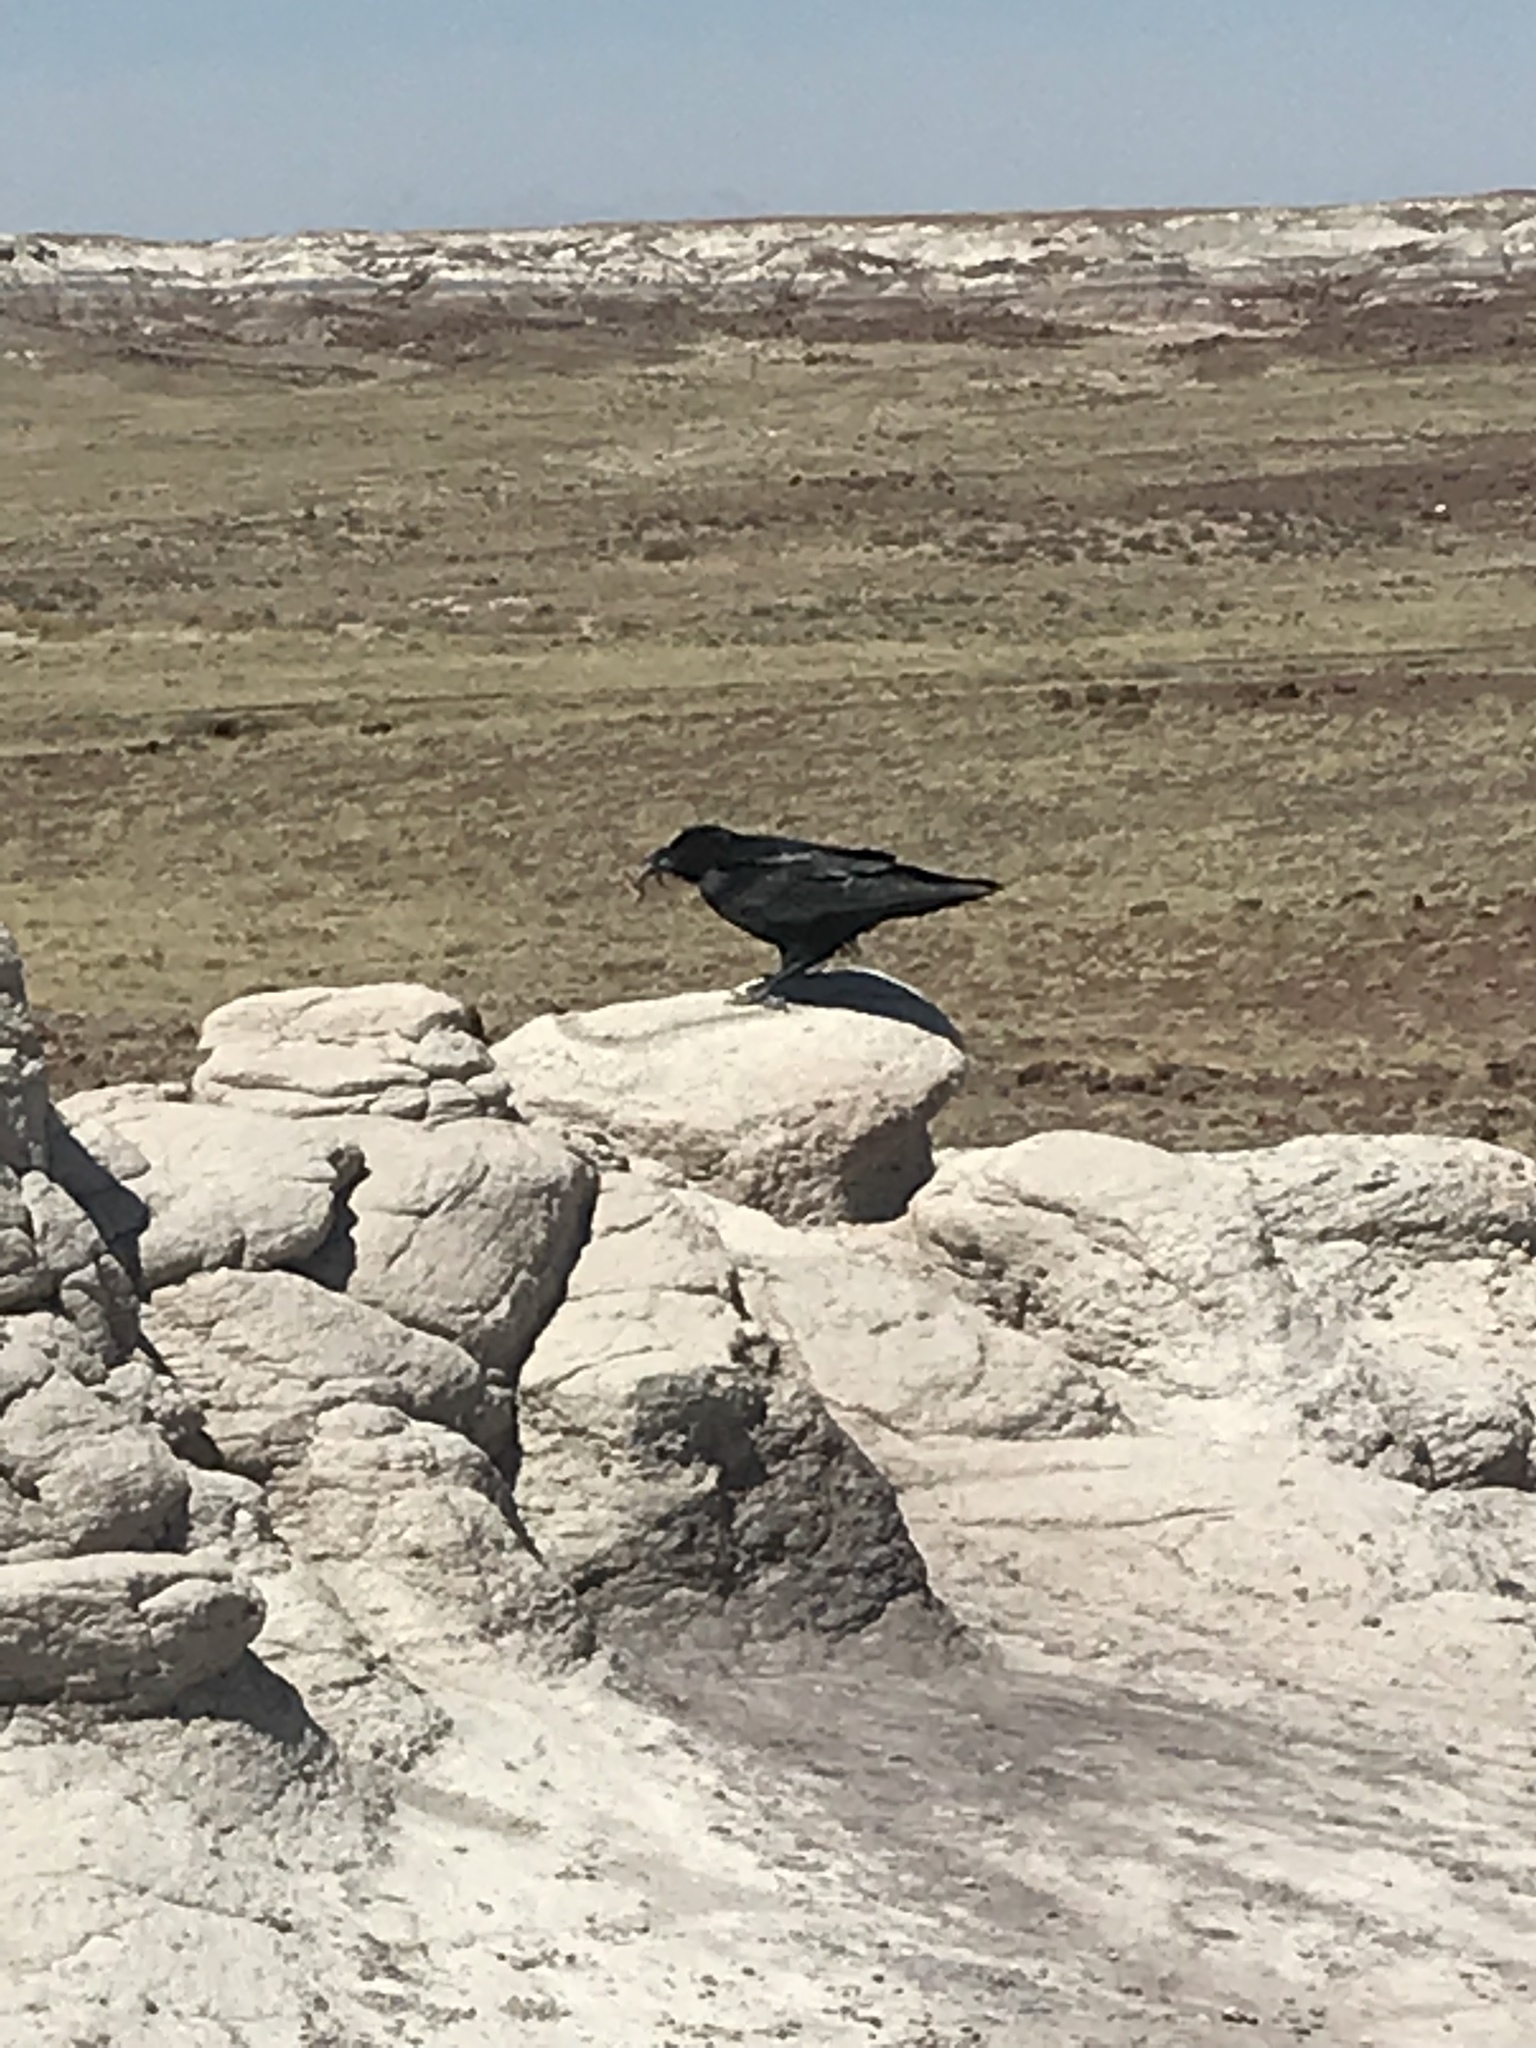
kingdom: Animalia
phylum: Chordata
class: Aves
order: Passeriformes
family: Corvidae
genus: Corvus
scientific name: Corvus corax
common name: Common raven
